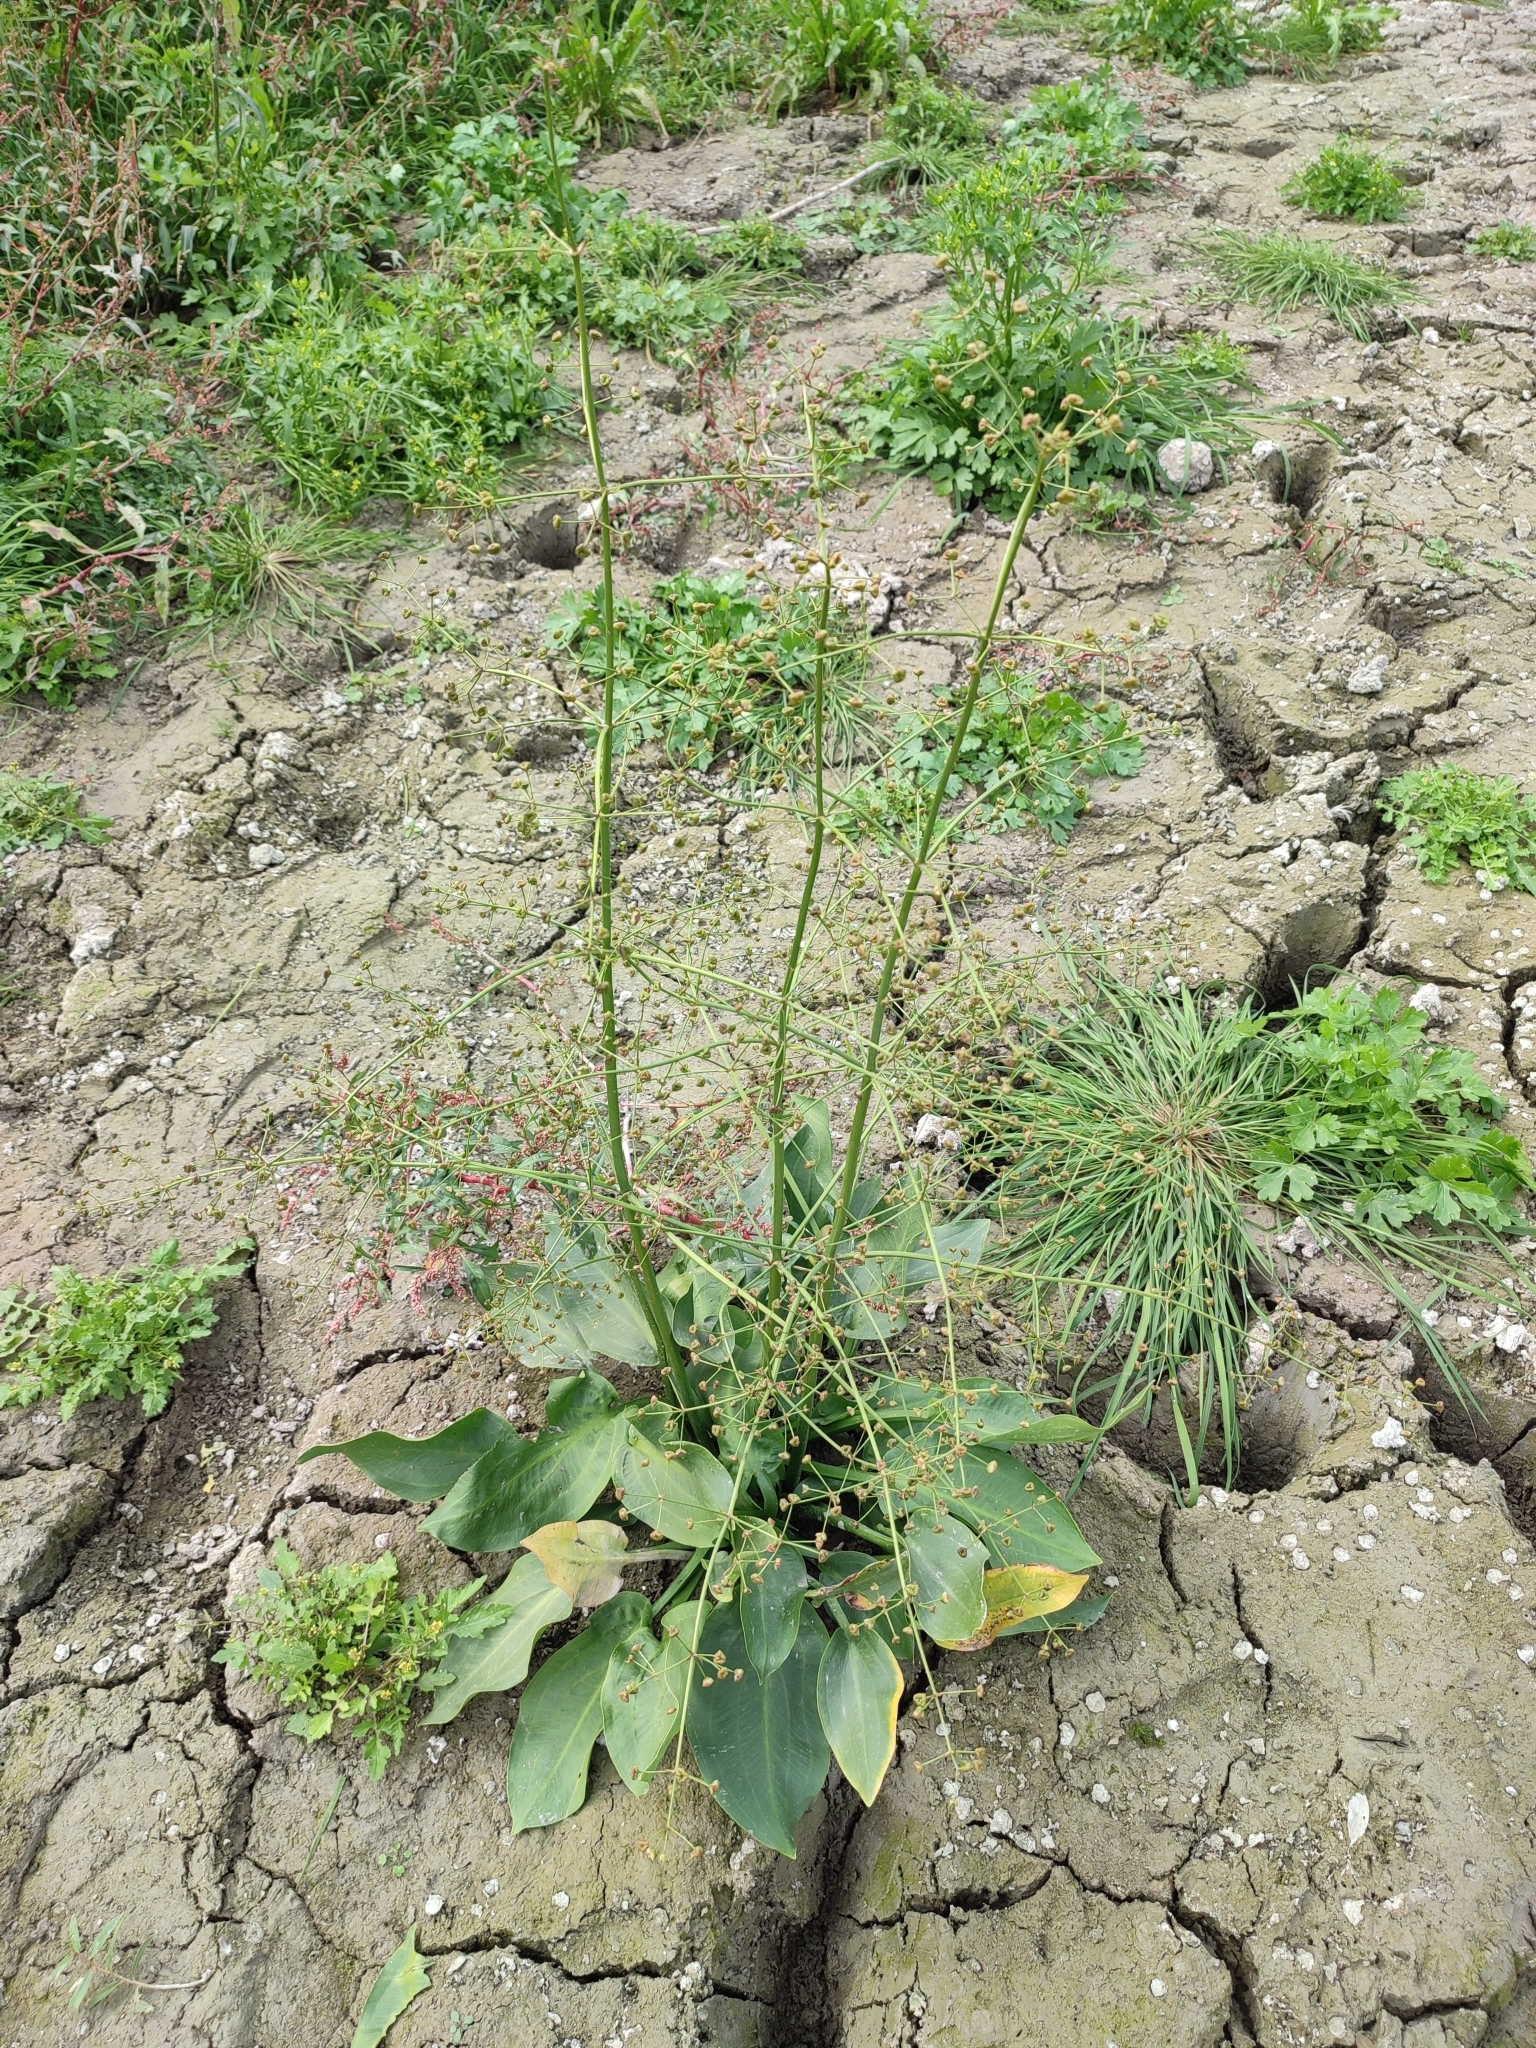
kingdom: Plantae
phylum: Tracheophyta
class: Liliopsida
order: Alismatales
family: Alismataceae
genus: Alisma
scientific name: Alisma plantago-aquatica
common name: Water-plantain
